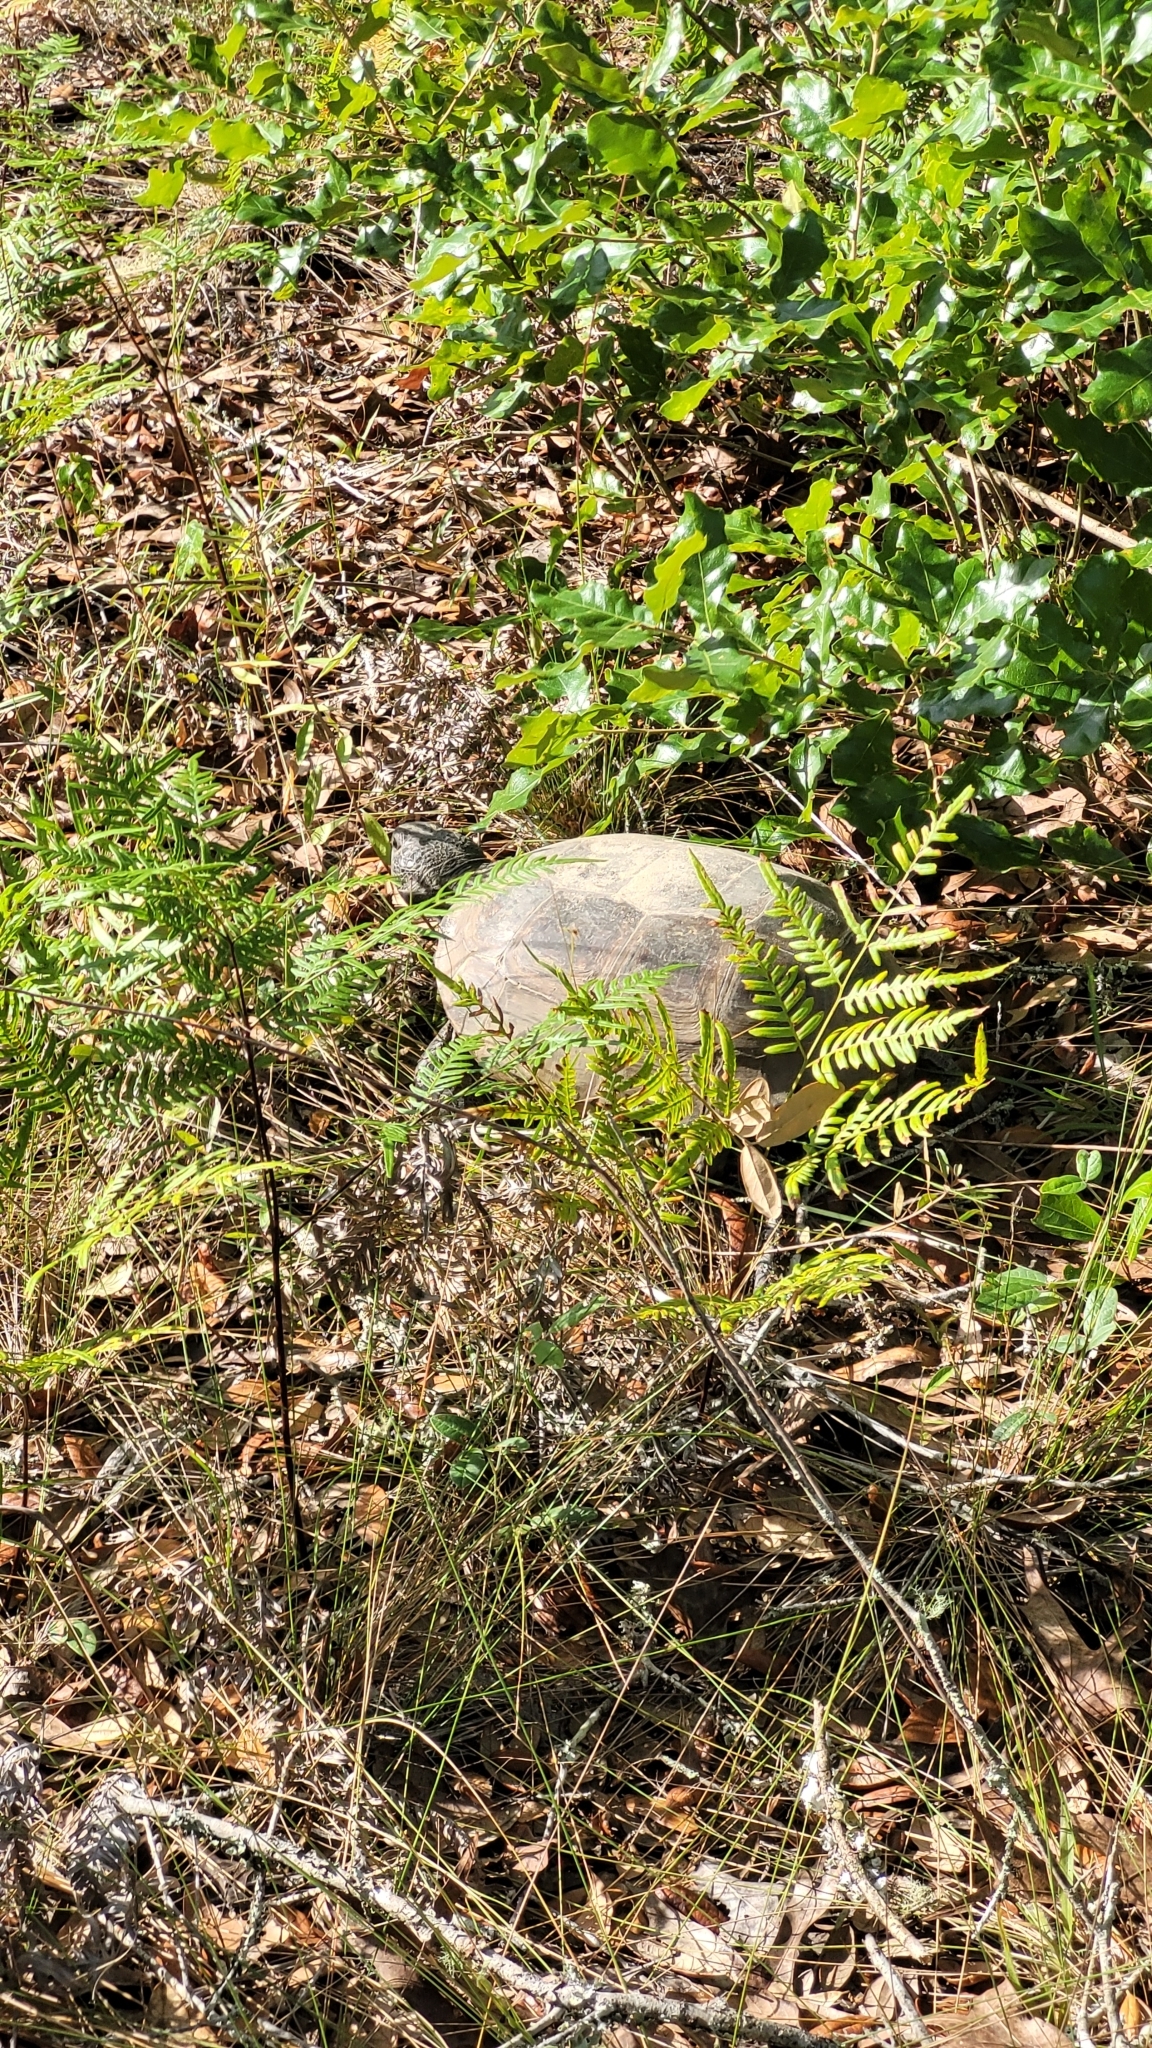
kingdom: Animalia
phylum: Chordata
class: Testudines
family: Testudinidae
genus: Gopherus
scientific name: Gopherus polyphemus
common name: Florida gopher tortoise
